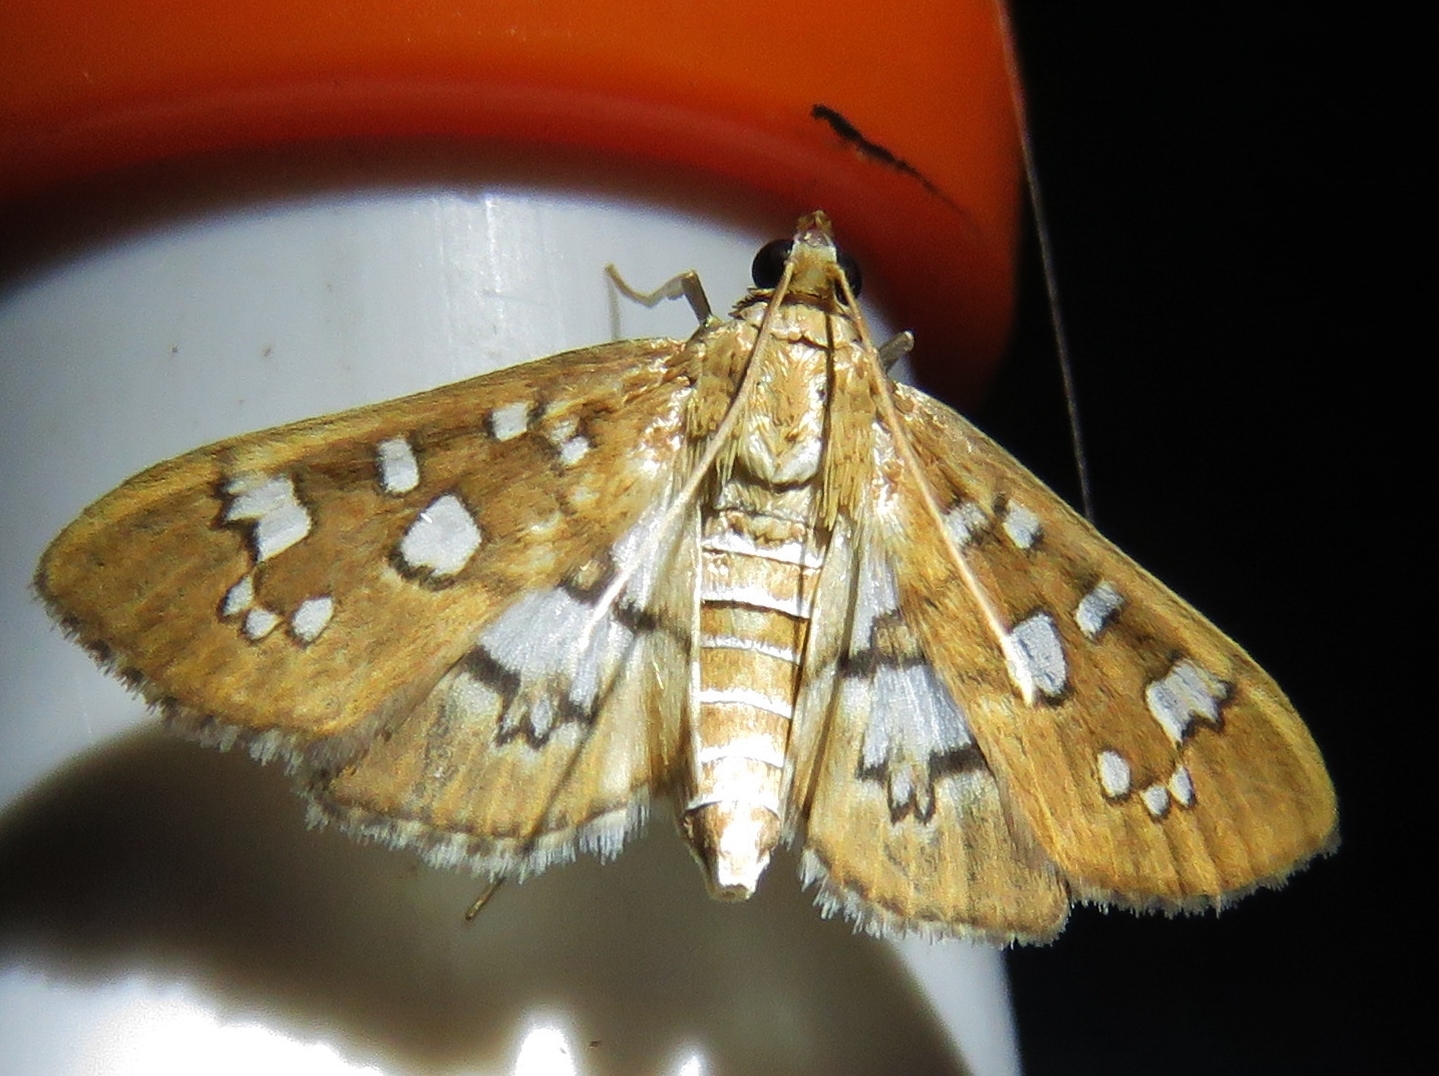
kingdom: Animalia
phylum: Arthropoda
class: Insecta
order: Lepidoptera
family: Crambidae
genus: Samea
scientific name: Samea baccatalis
